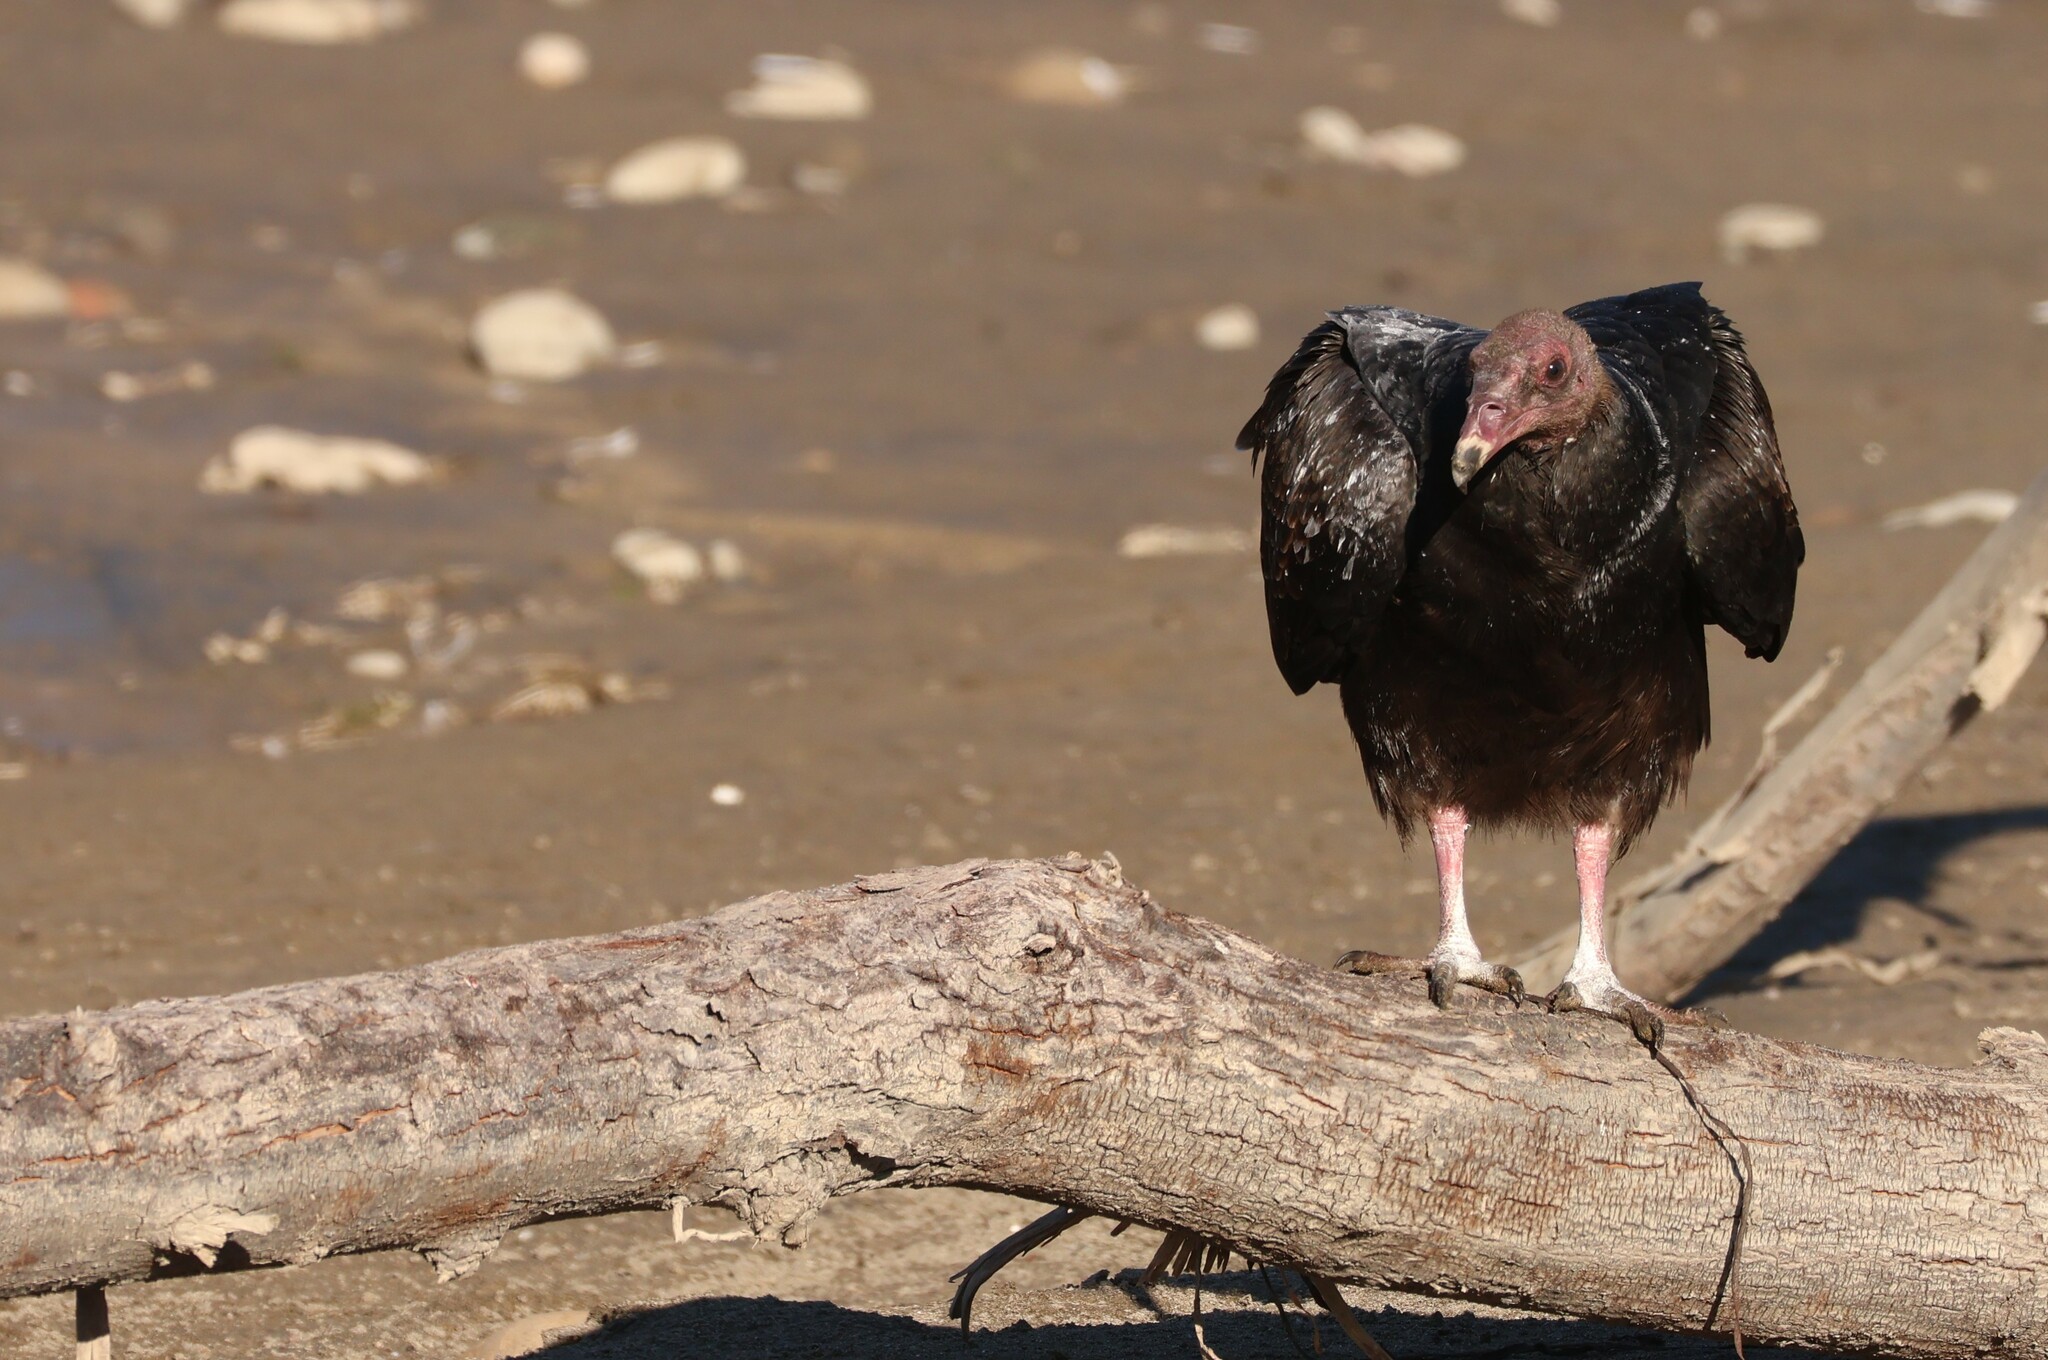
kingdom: Animalia
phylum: Chordata
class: Aves
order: Accipitriformes
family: Cathartidae
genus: Cathartes
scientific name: Cathartes aura
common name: Turkey vulture
